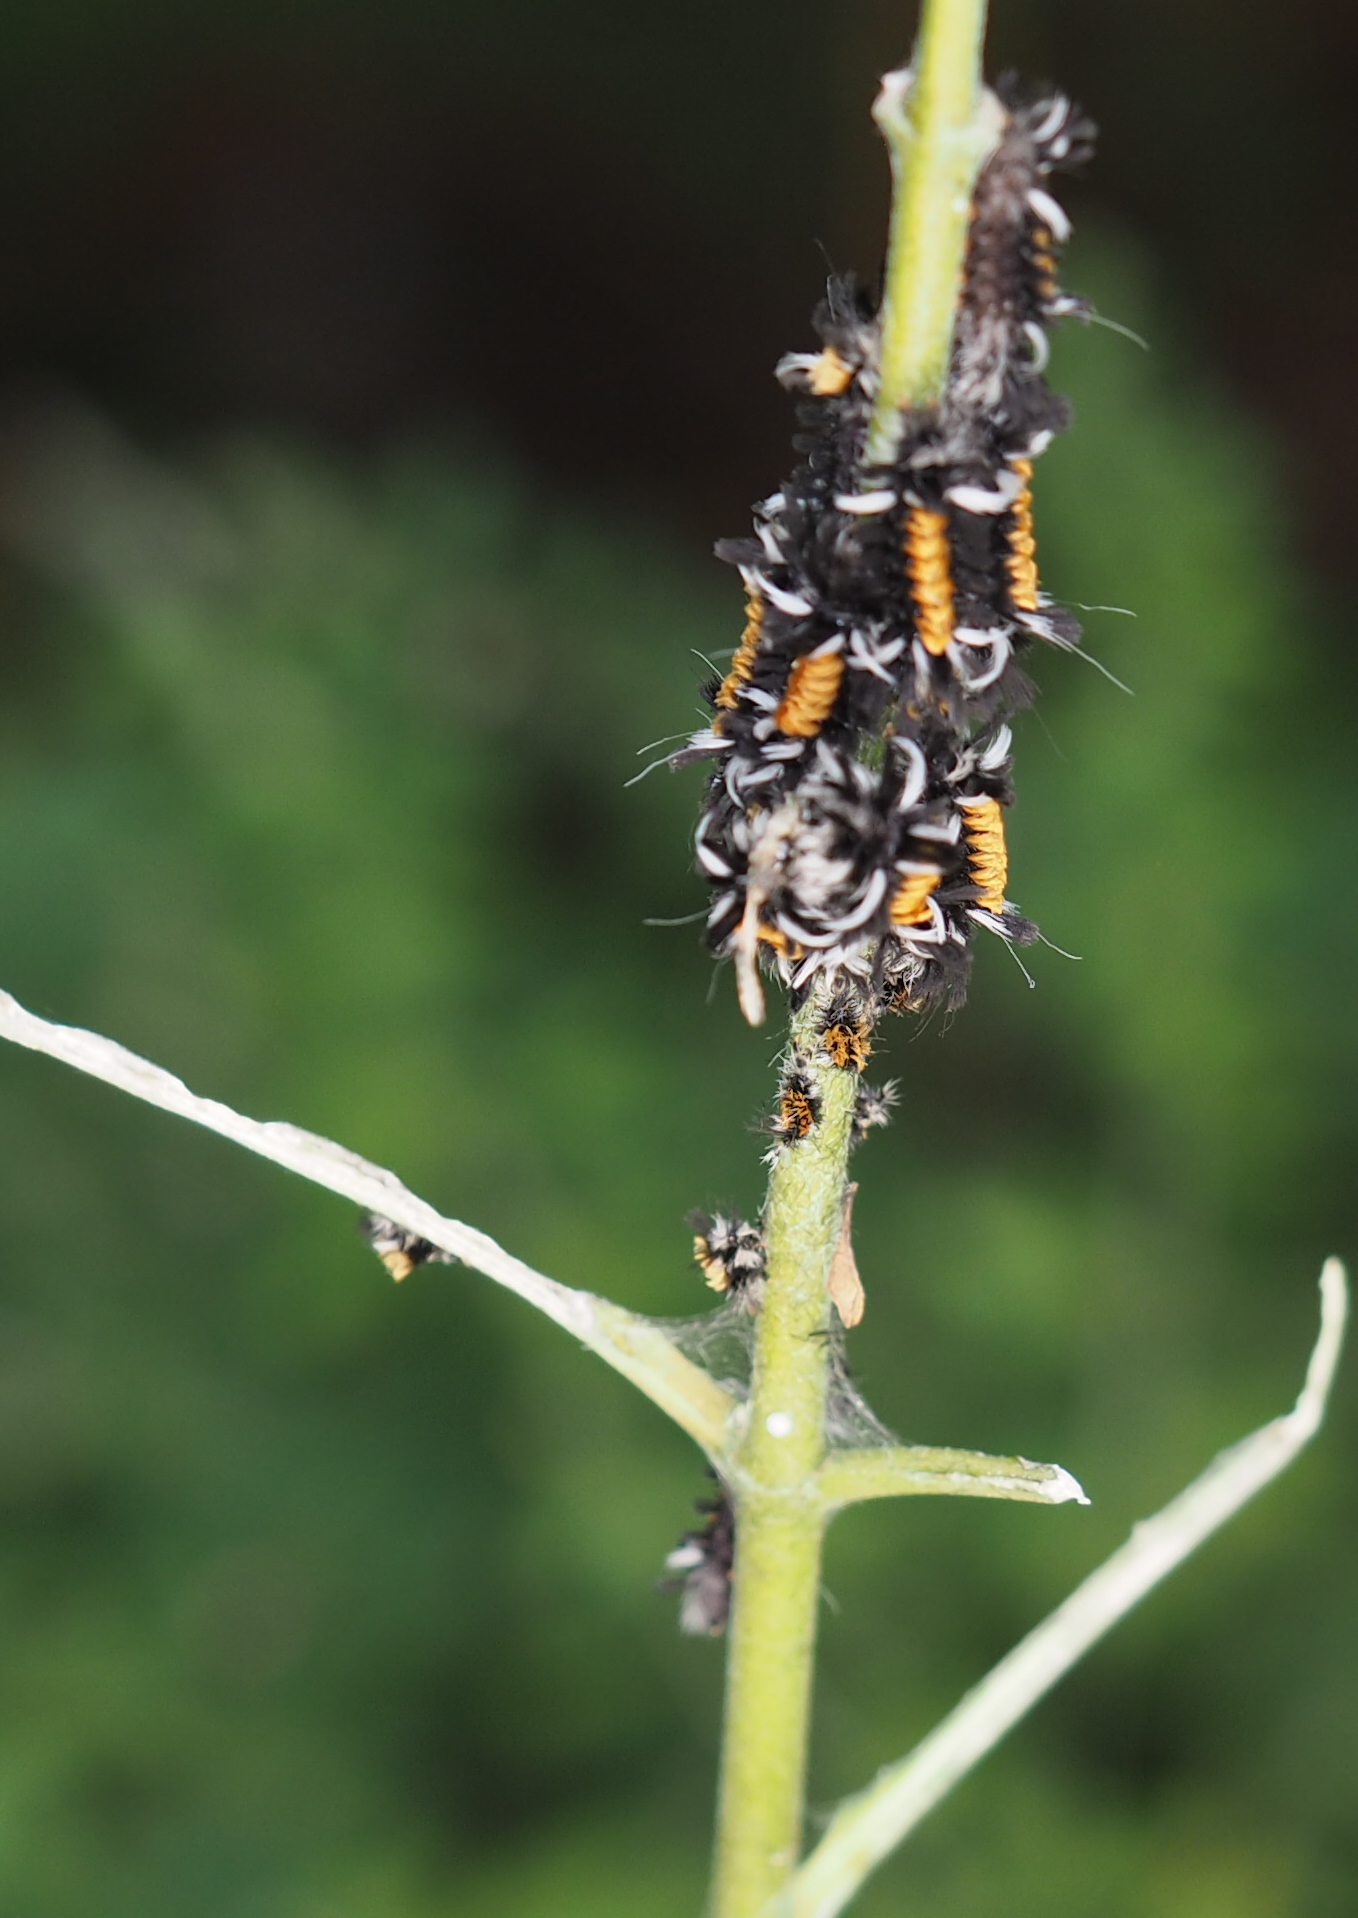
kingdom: Animalia
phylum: Arthropoda
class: Insecta
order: Lepidoptera
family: Erebidae
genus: Euchaetes
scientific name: Euchaetes egle
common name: Milkweed tussock moth
